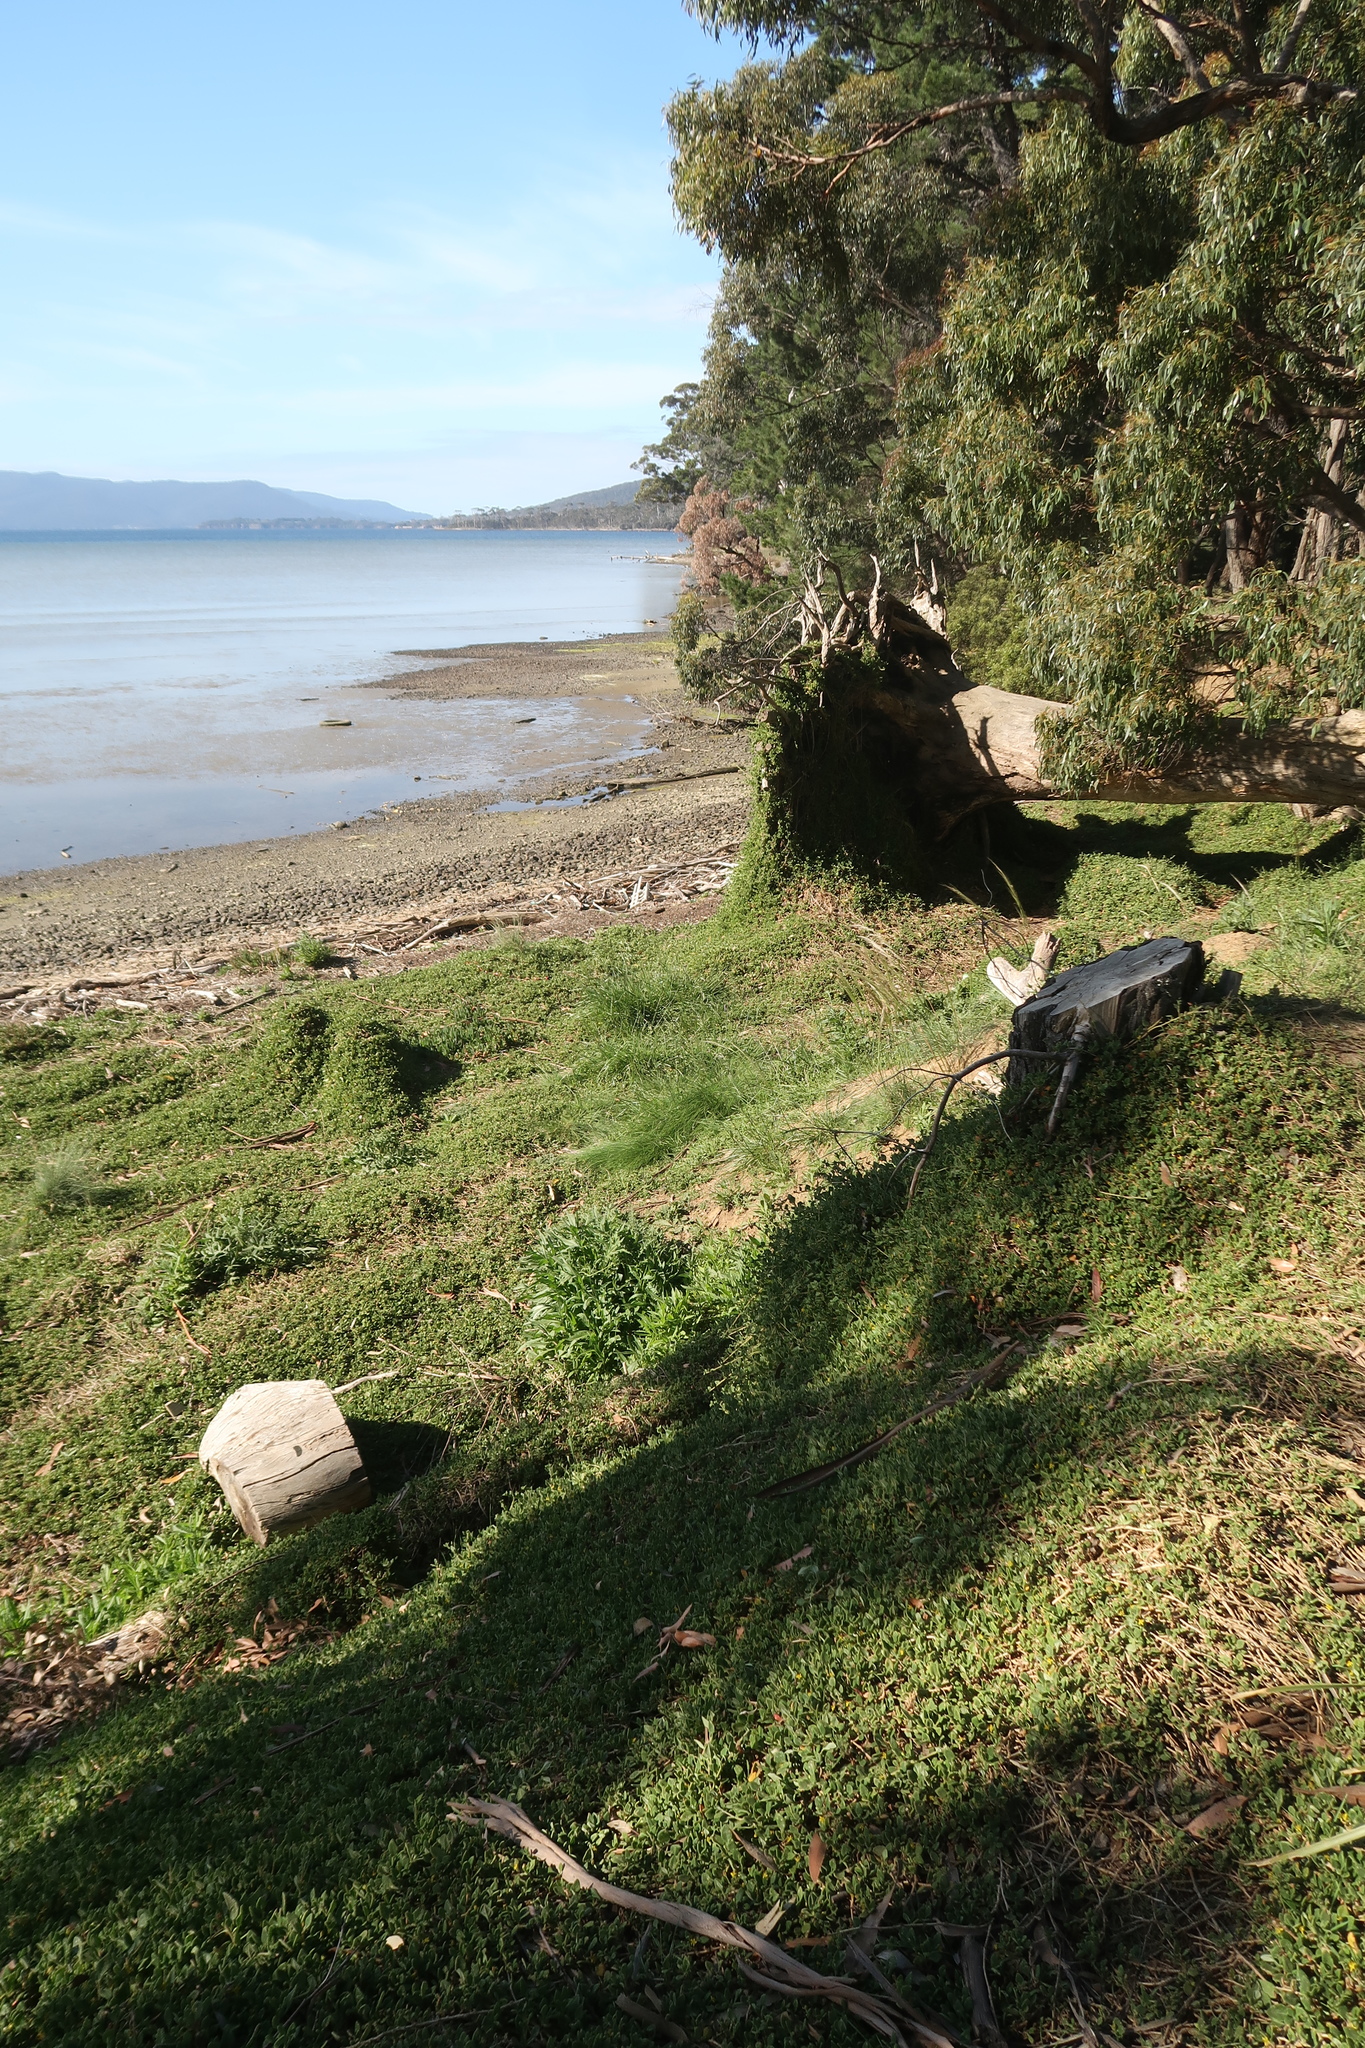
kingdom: Plantae
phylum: Tracheophyta
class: Magnoliopsida
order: Caryophyllales
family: Aizoaceae
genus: Tetragonia
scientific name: Tetragonia implexicoma
